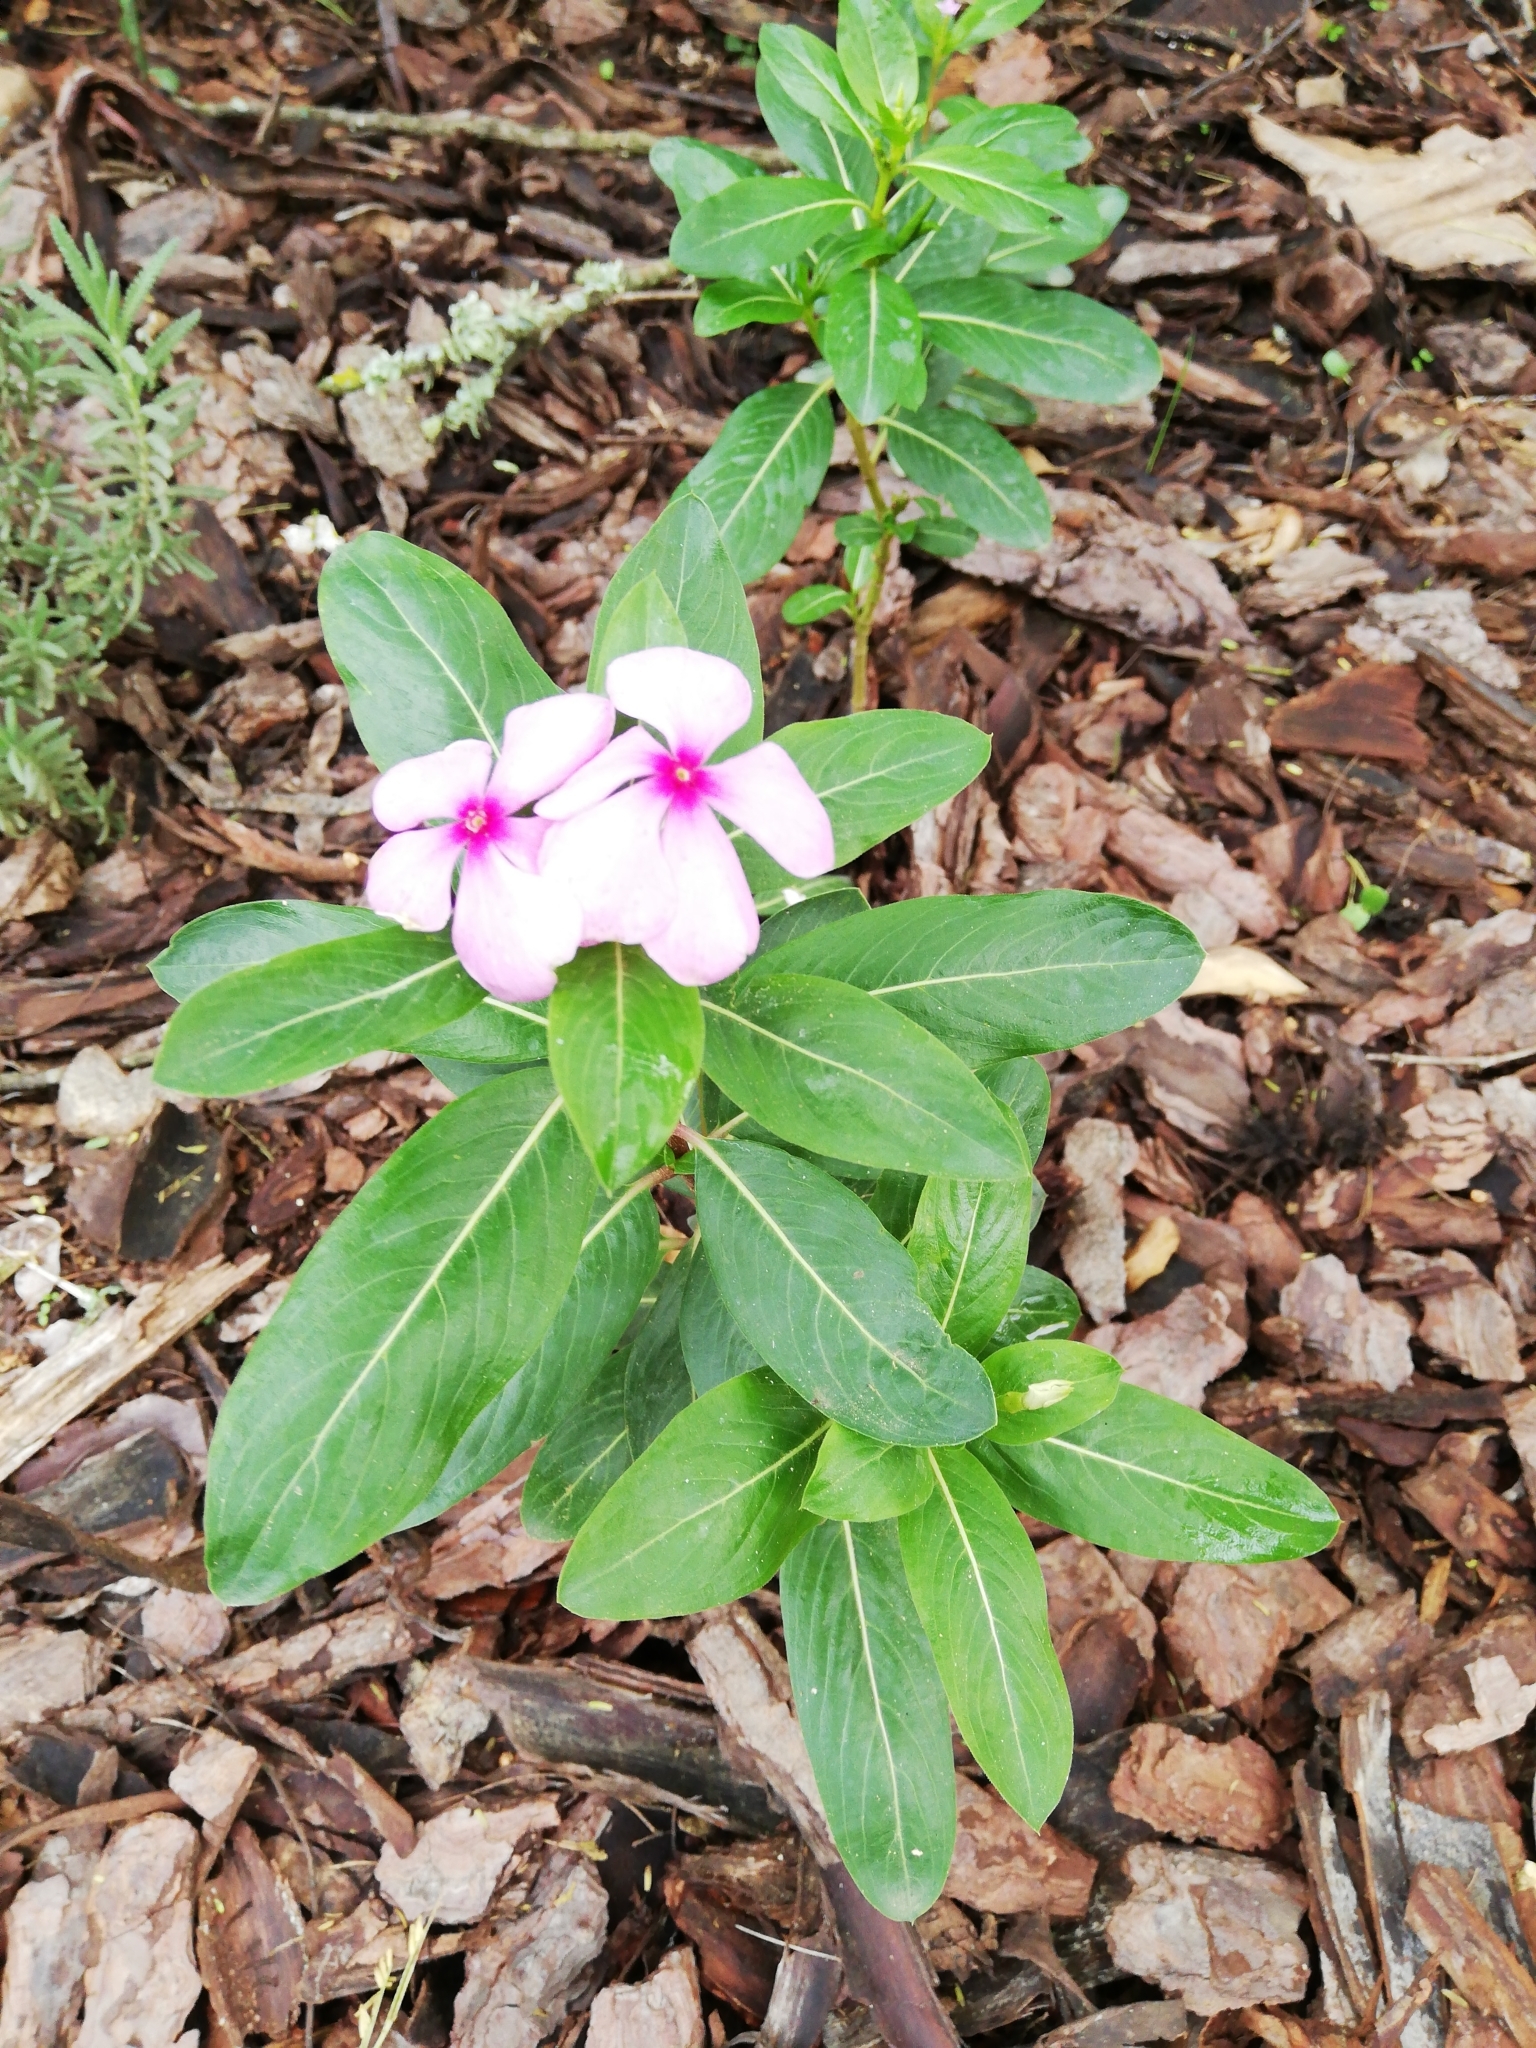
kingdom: Plantae
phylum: Tracheophyta
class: Magnoliopsida
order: Gentianales
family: Apocynaceae
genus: Catharanthus
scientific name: Catharanthus roseus
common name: Madagascar periwinkle
